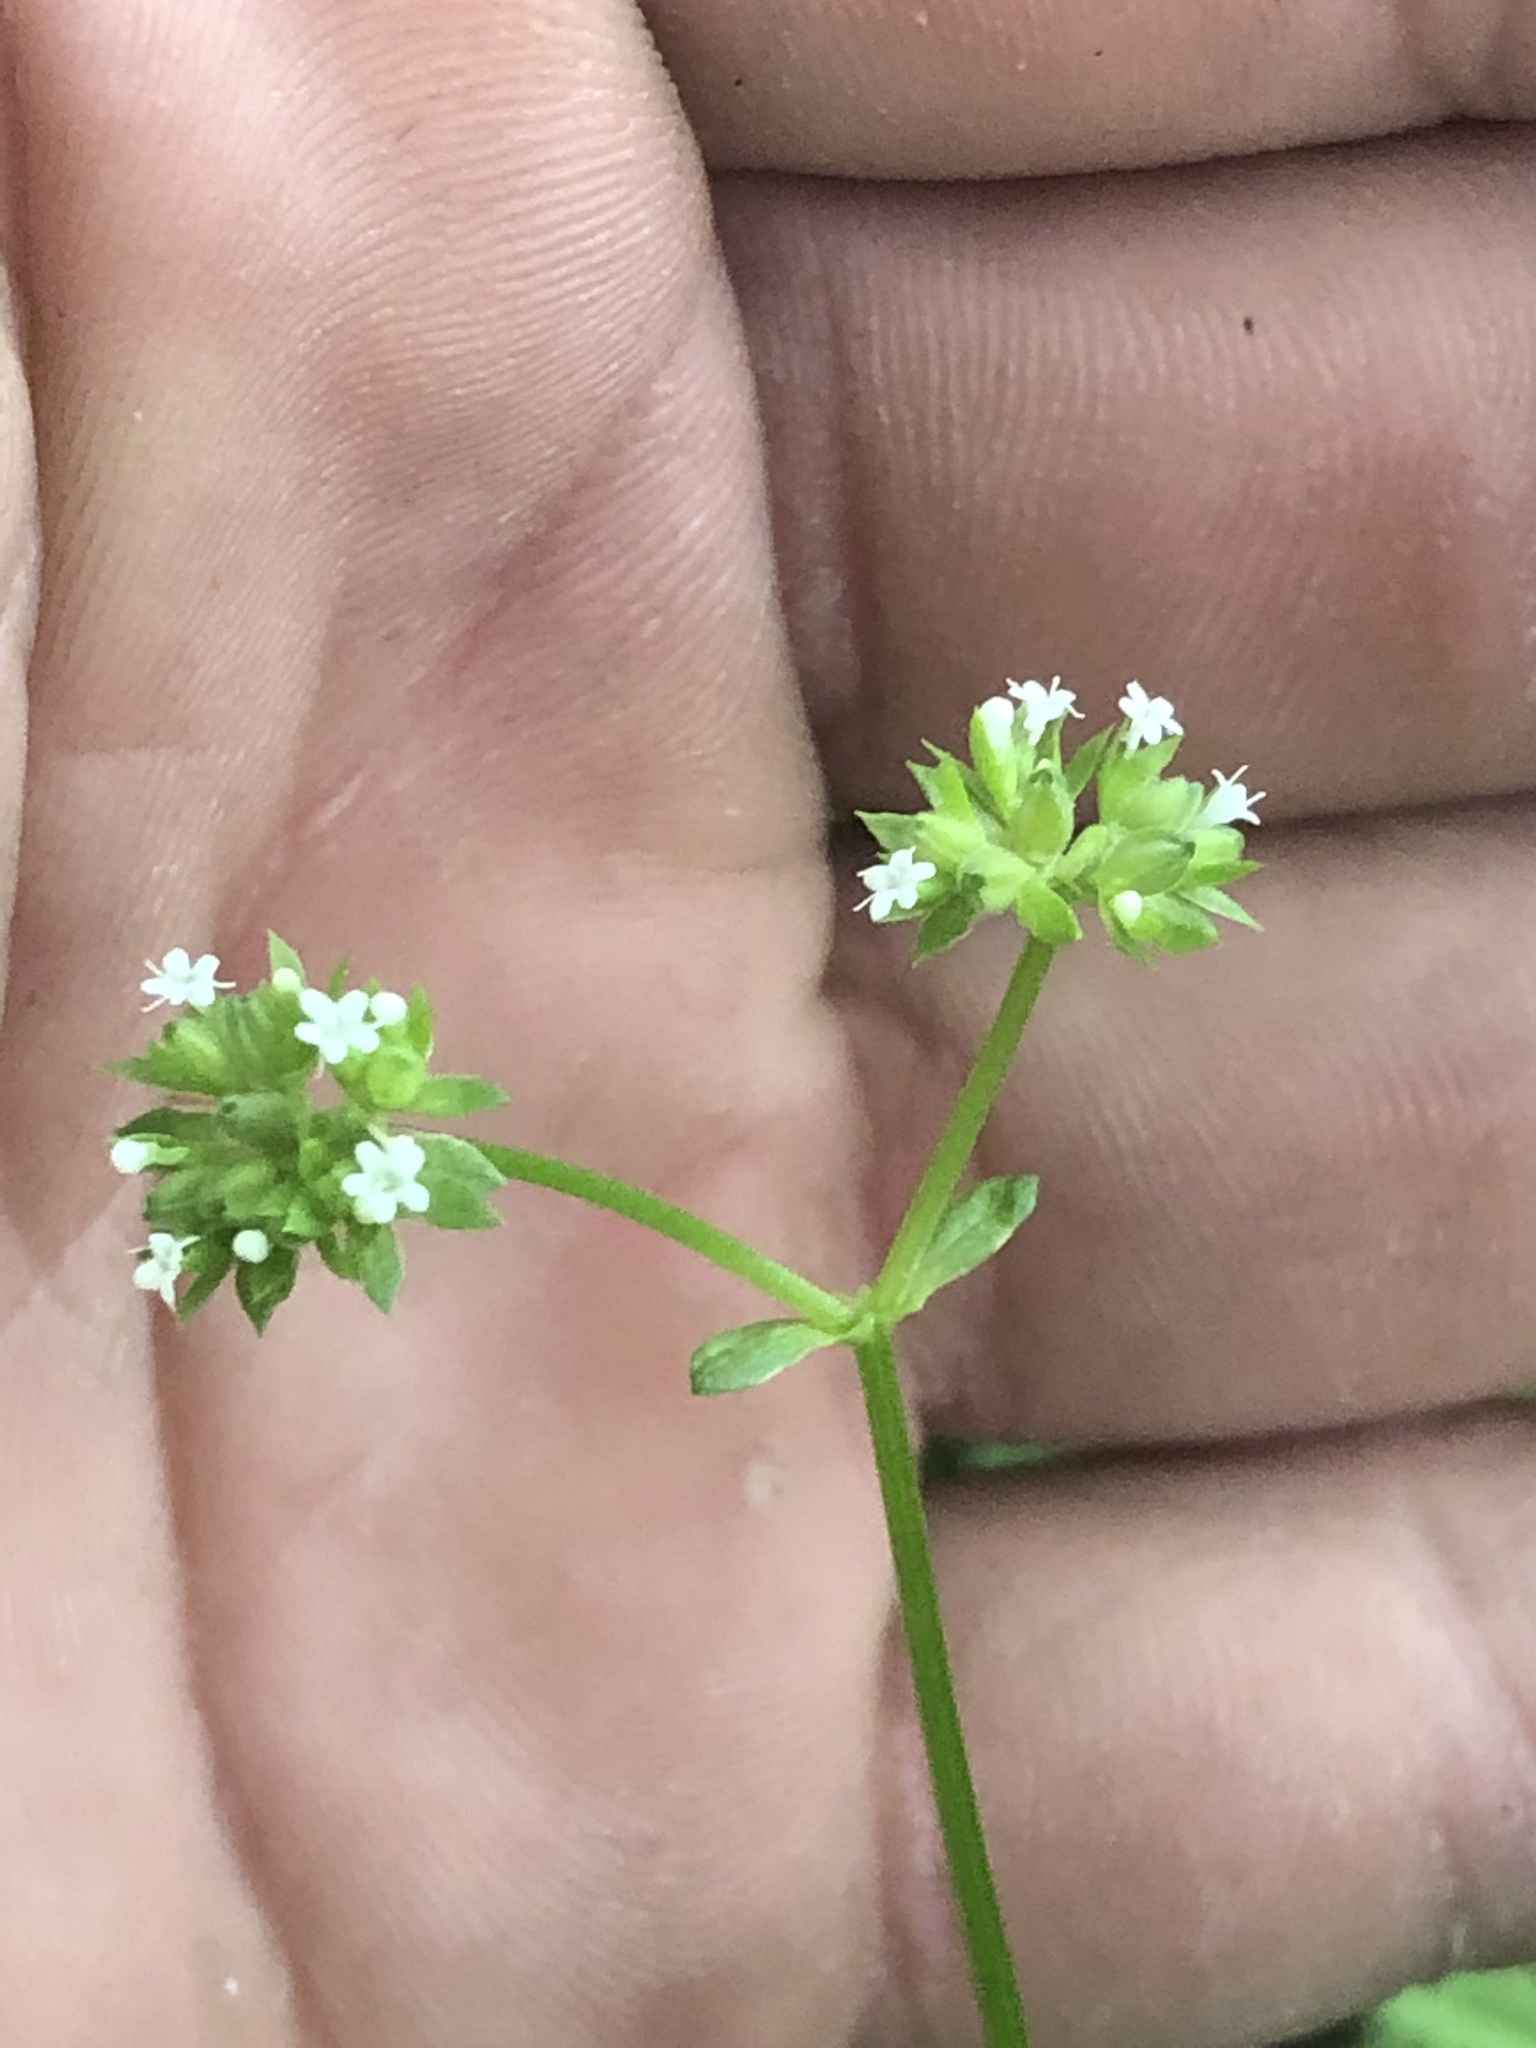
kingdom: Plantae
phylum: Tracheophyta
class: Magnoliopsida
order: Dipsacales
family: Caprifoliaceae
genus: Valerianella
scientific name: Valerianella radiata
